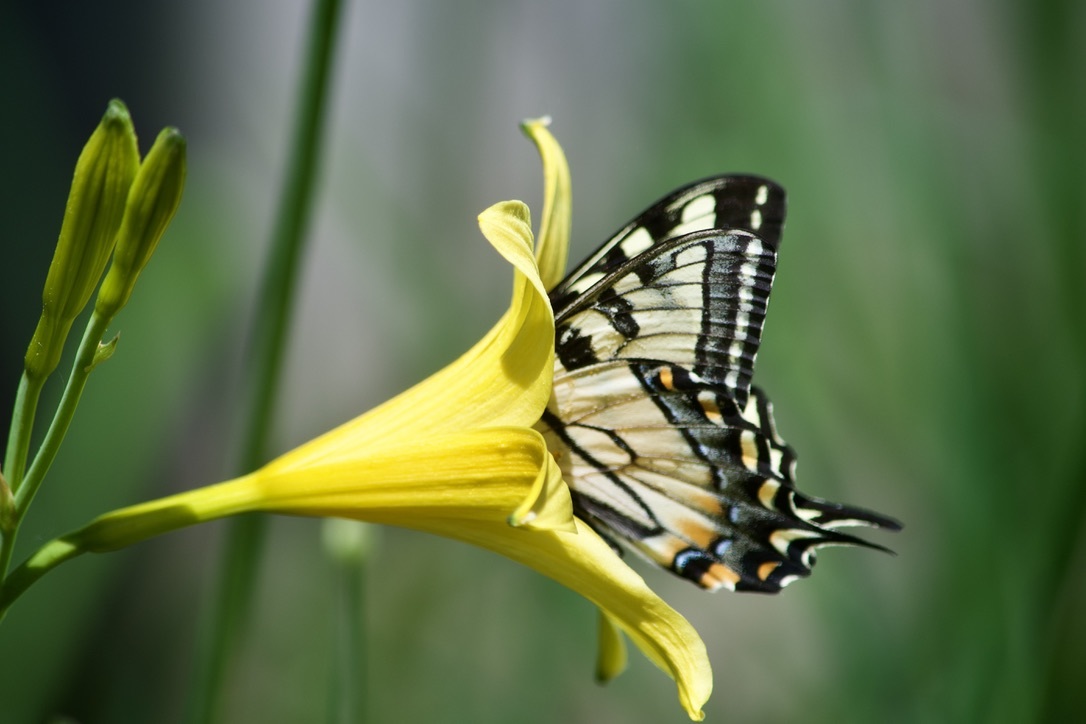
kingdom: Animalia
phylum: Arthropoda
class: Insecta
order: Lepidoptera
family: Papilionidae
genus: Papilio
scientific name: Papilio canadensis
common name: Canadian tiger swallowtail
